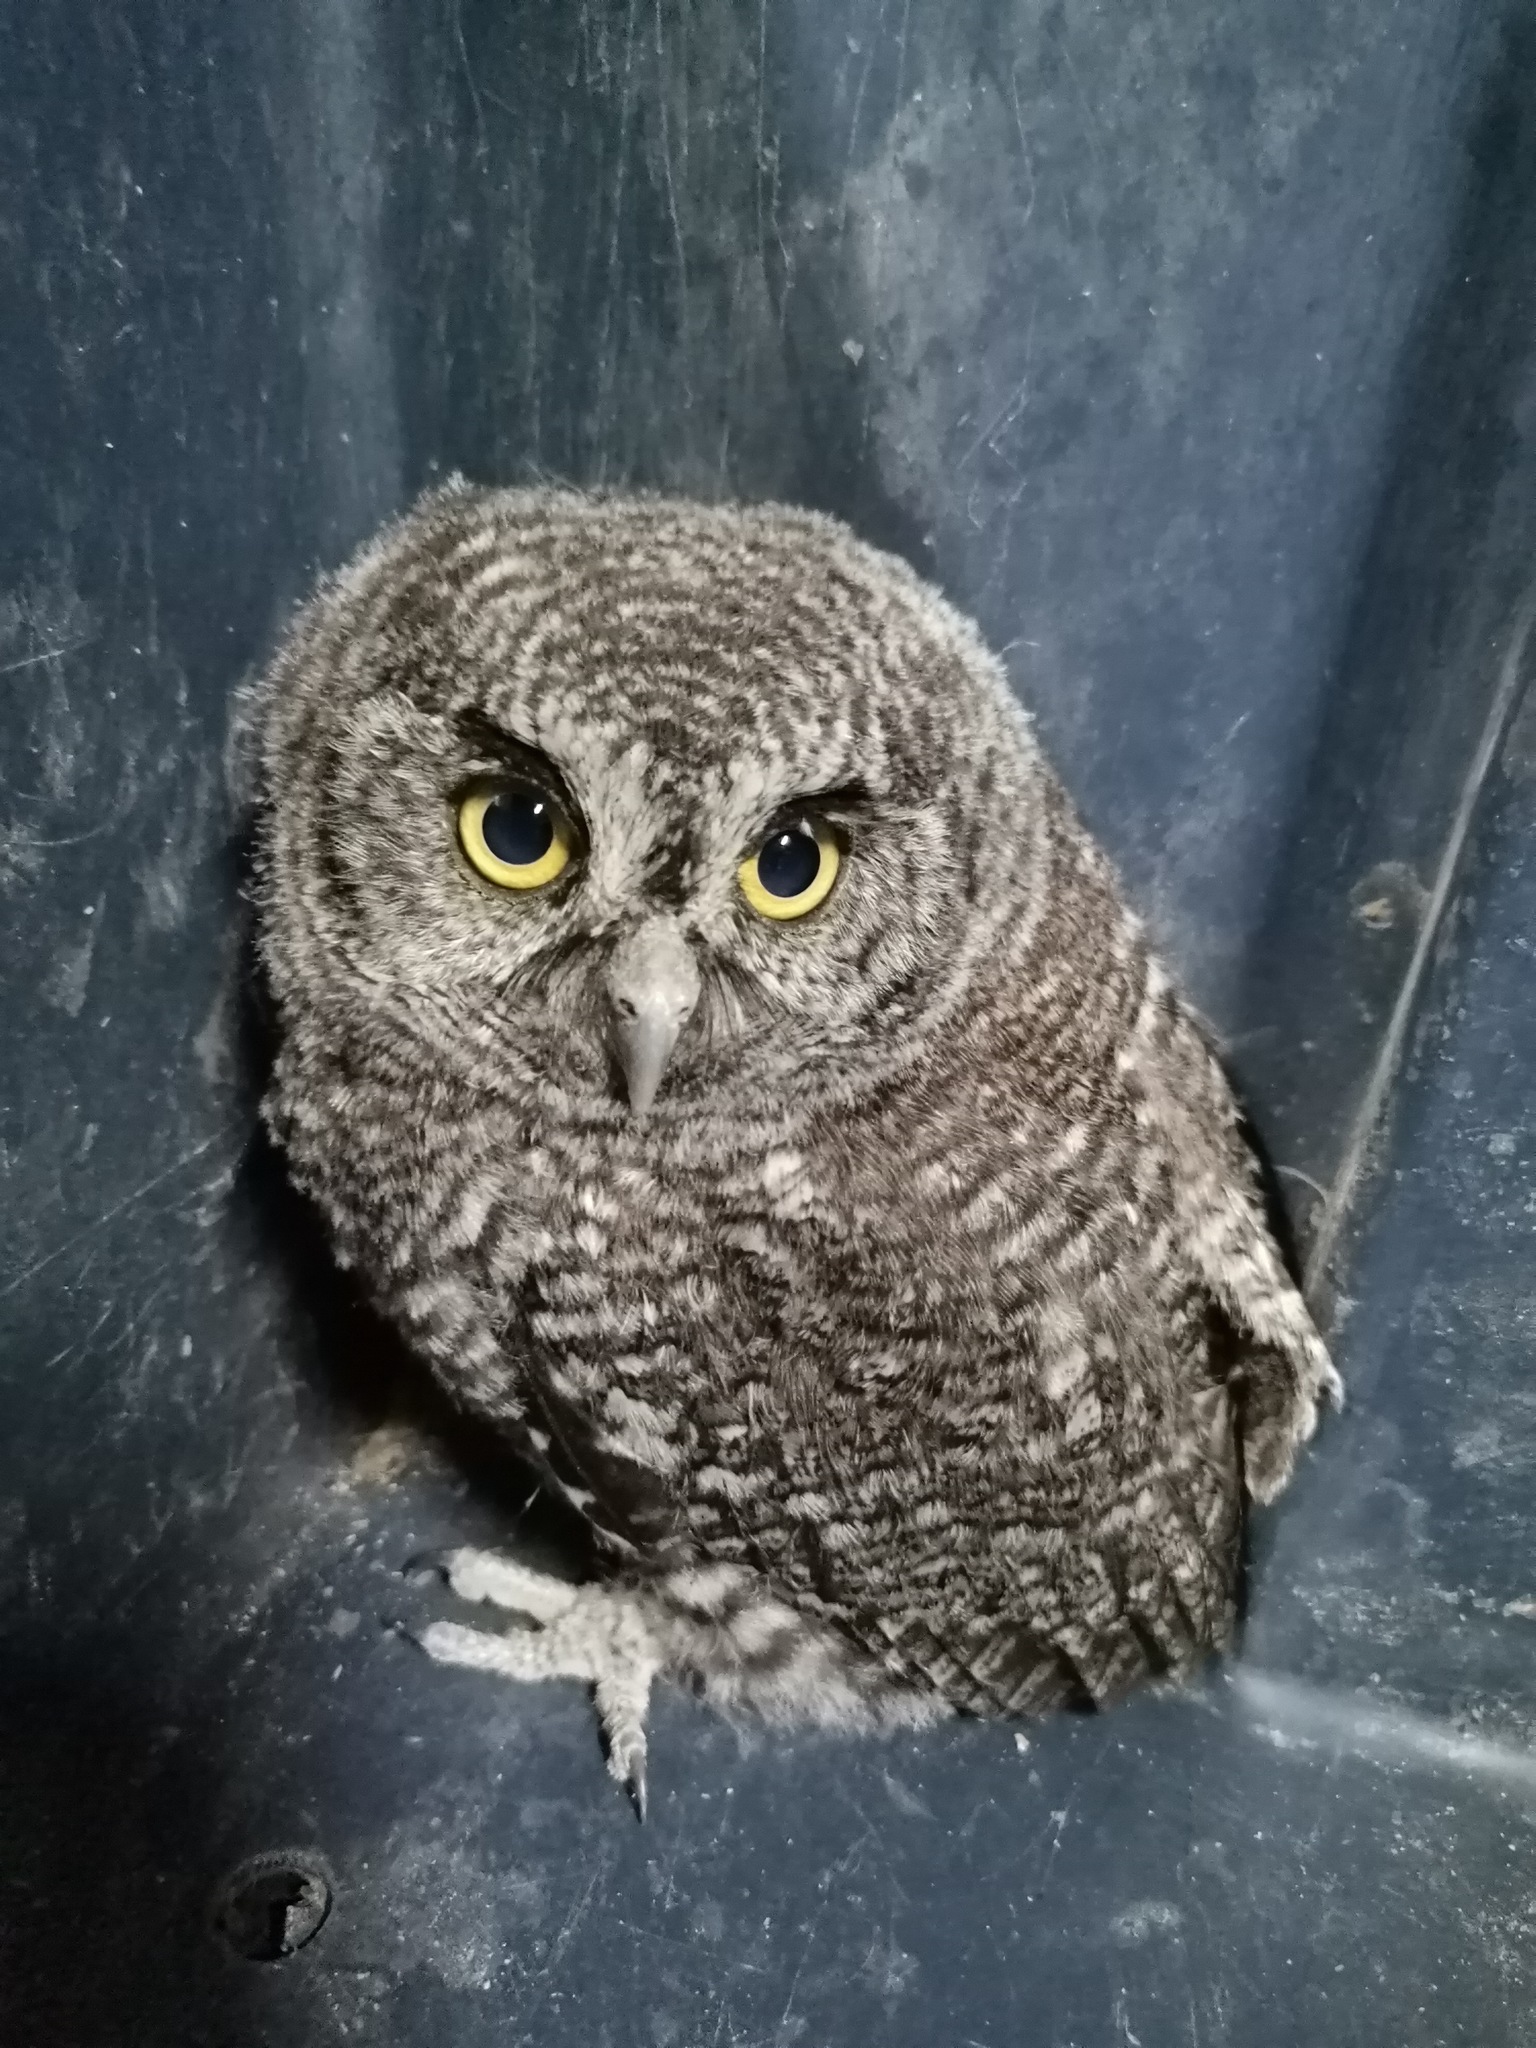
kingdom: Animalia
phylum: Chordata
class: Aves
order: Strigiformes
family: Strigidae
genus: Megascops
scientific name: Megascops kennicottii
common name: Western screech-owl
